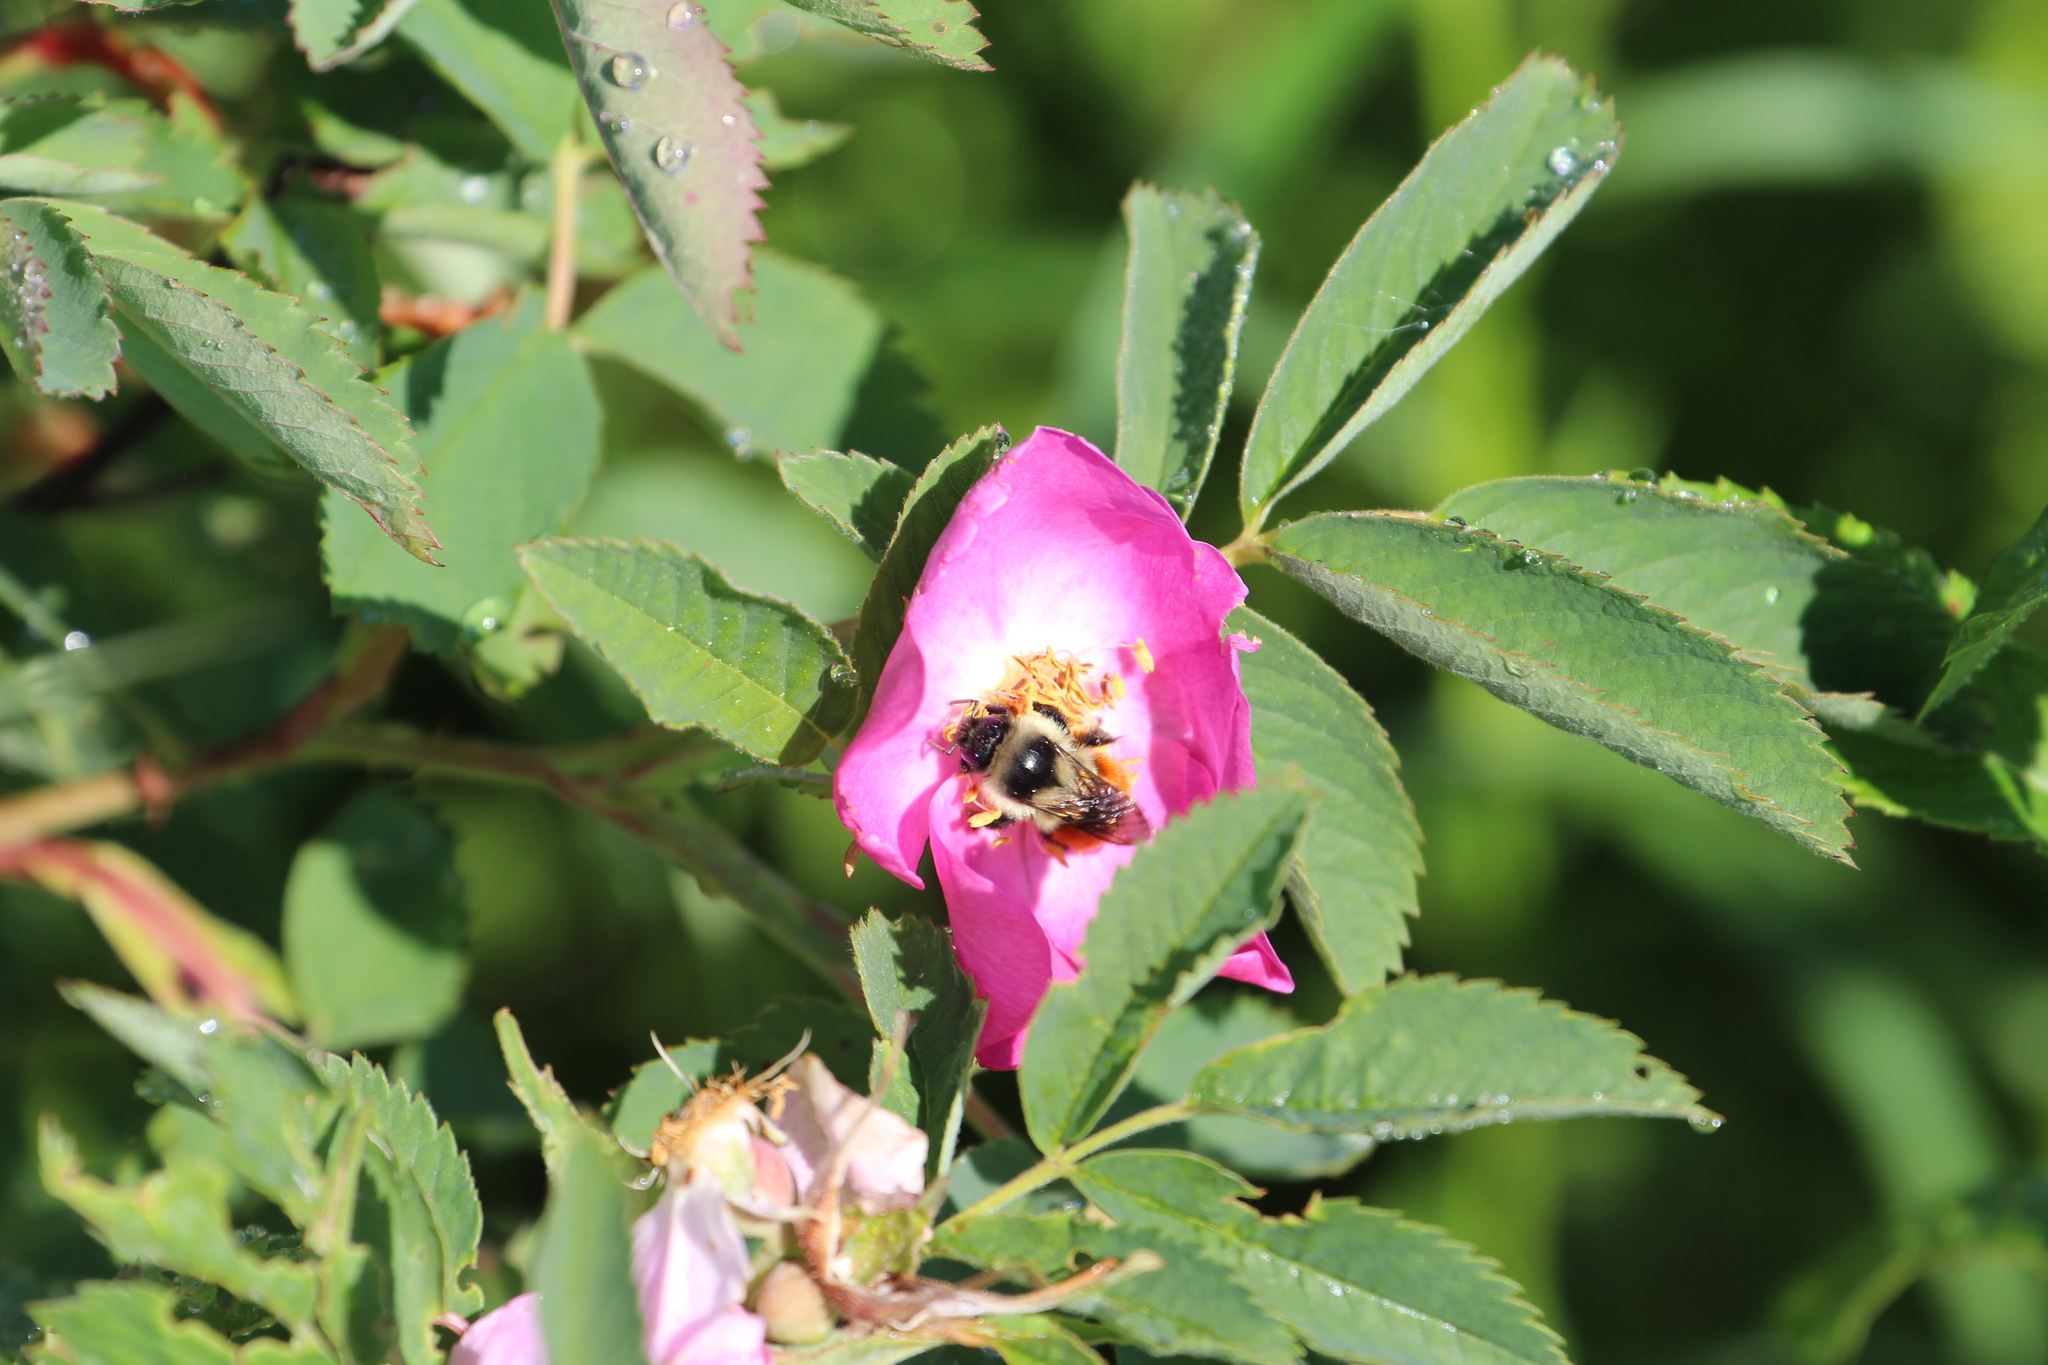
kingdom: Animalia
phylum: Arthropoda
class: Insecta
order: Hymenoptera
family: Apidae
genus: Bombus
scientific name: Bombus ternarius
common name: Tri-colored bumble bee
